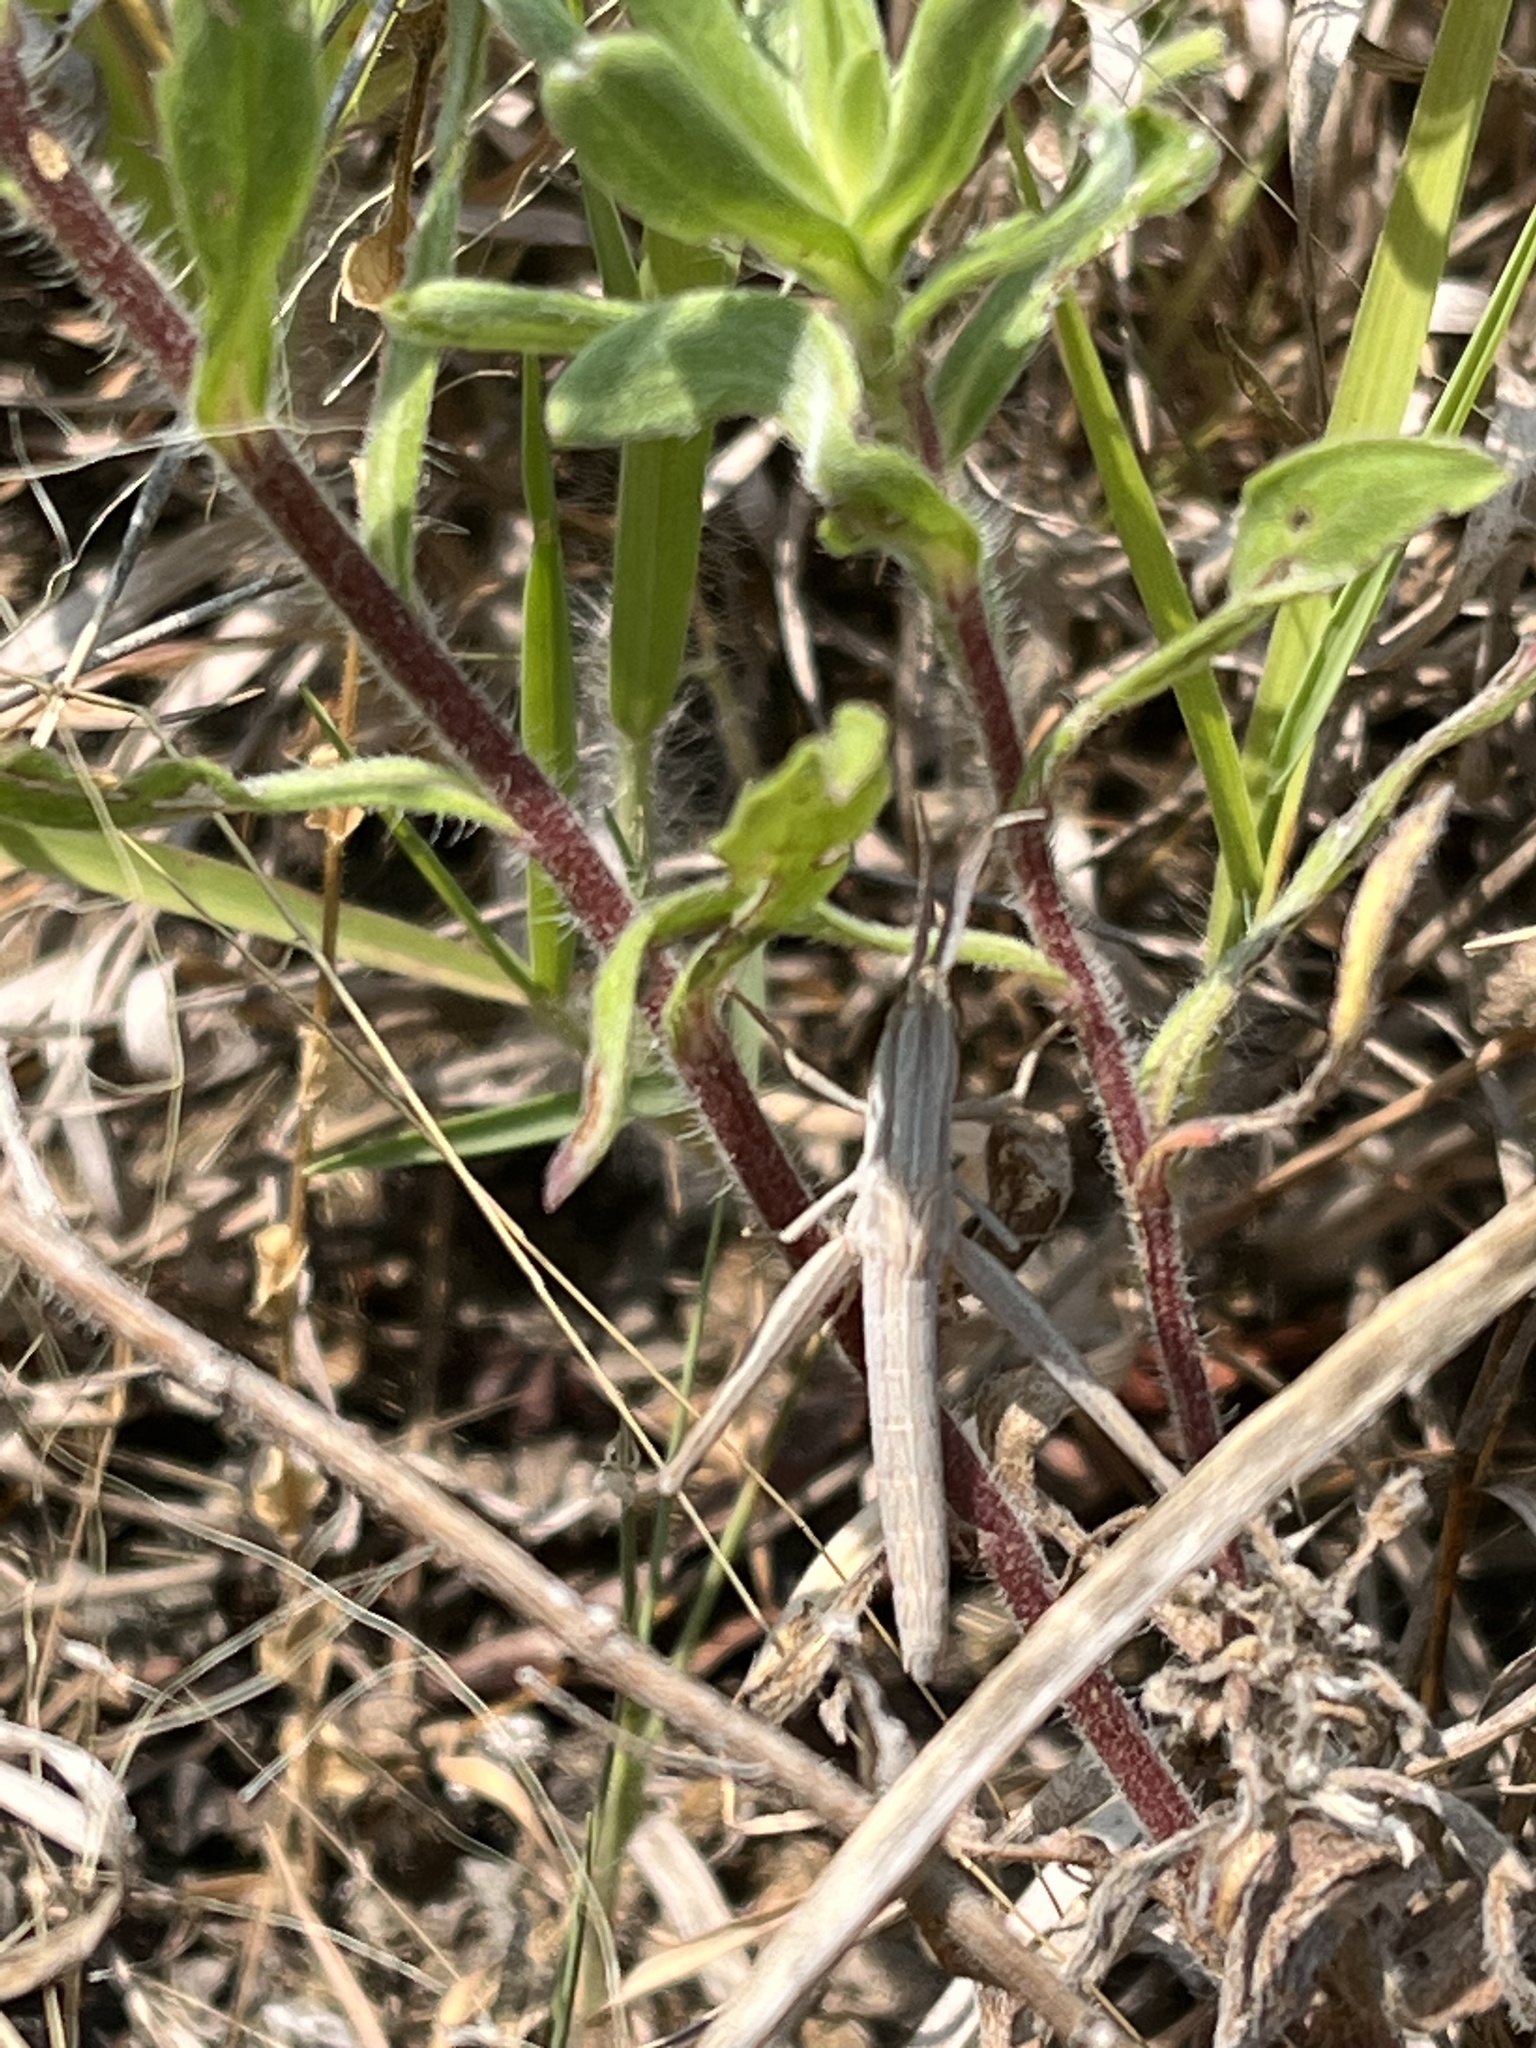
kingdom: Animalia
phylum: Arthropoda
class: Insecta
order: Orthoptera
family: Acrididae
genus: Pseudopomala
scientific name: Pseudopomala brachyptera
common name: Bunchgrass grasshopper
